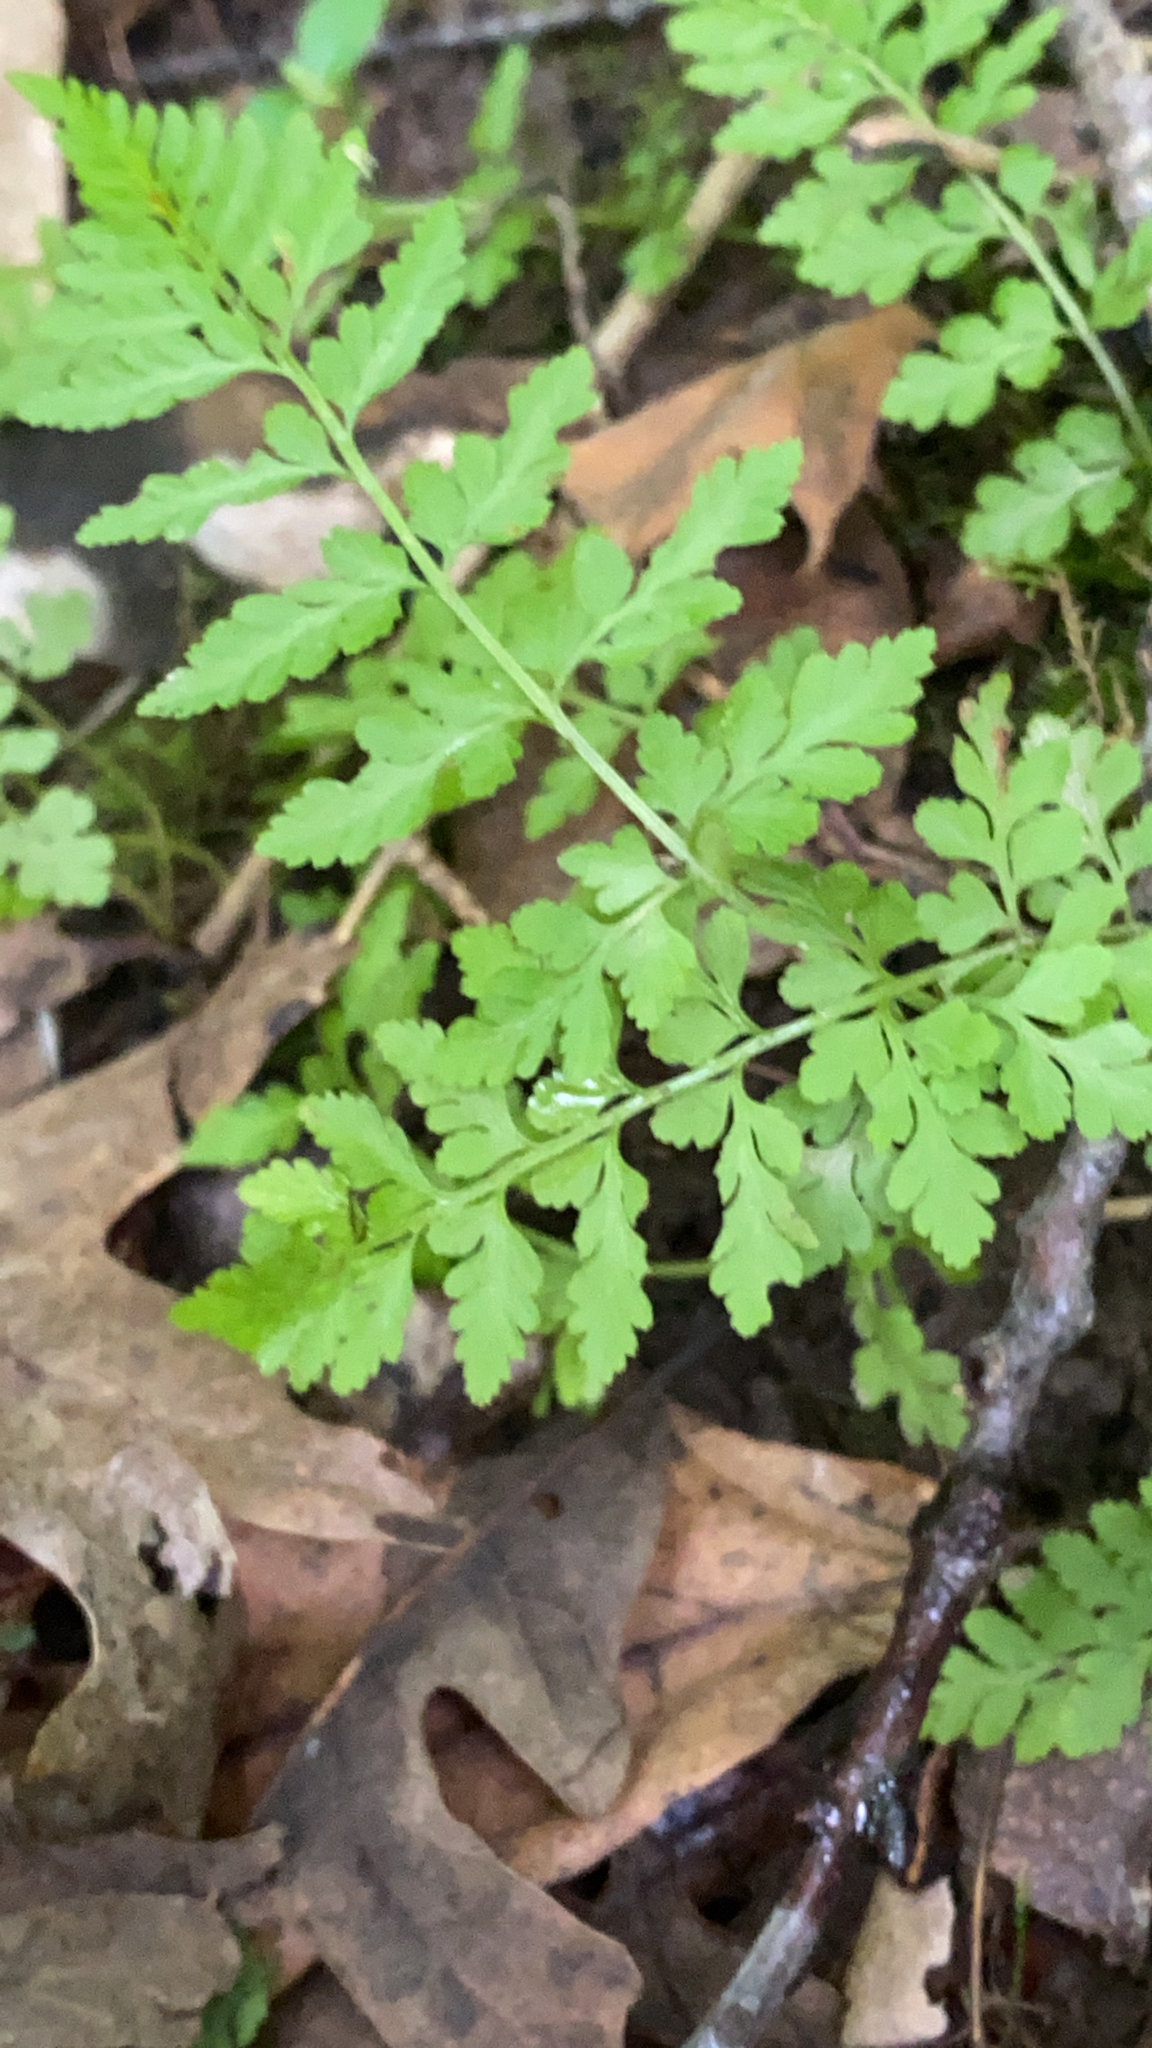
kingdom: Plantae
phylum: Tracheophyta
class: Polypodiopsida
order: Polypodiales
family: Cystopteridaceae
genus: Cystopteris
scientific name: Cystopteris protrusa
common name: Lowland brittle fern
